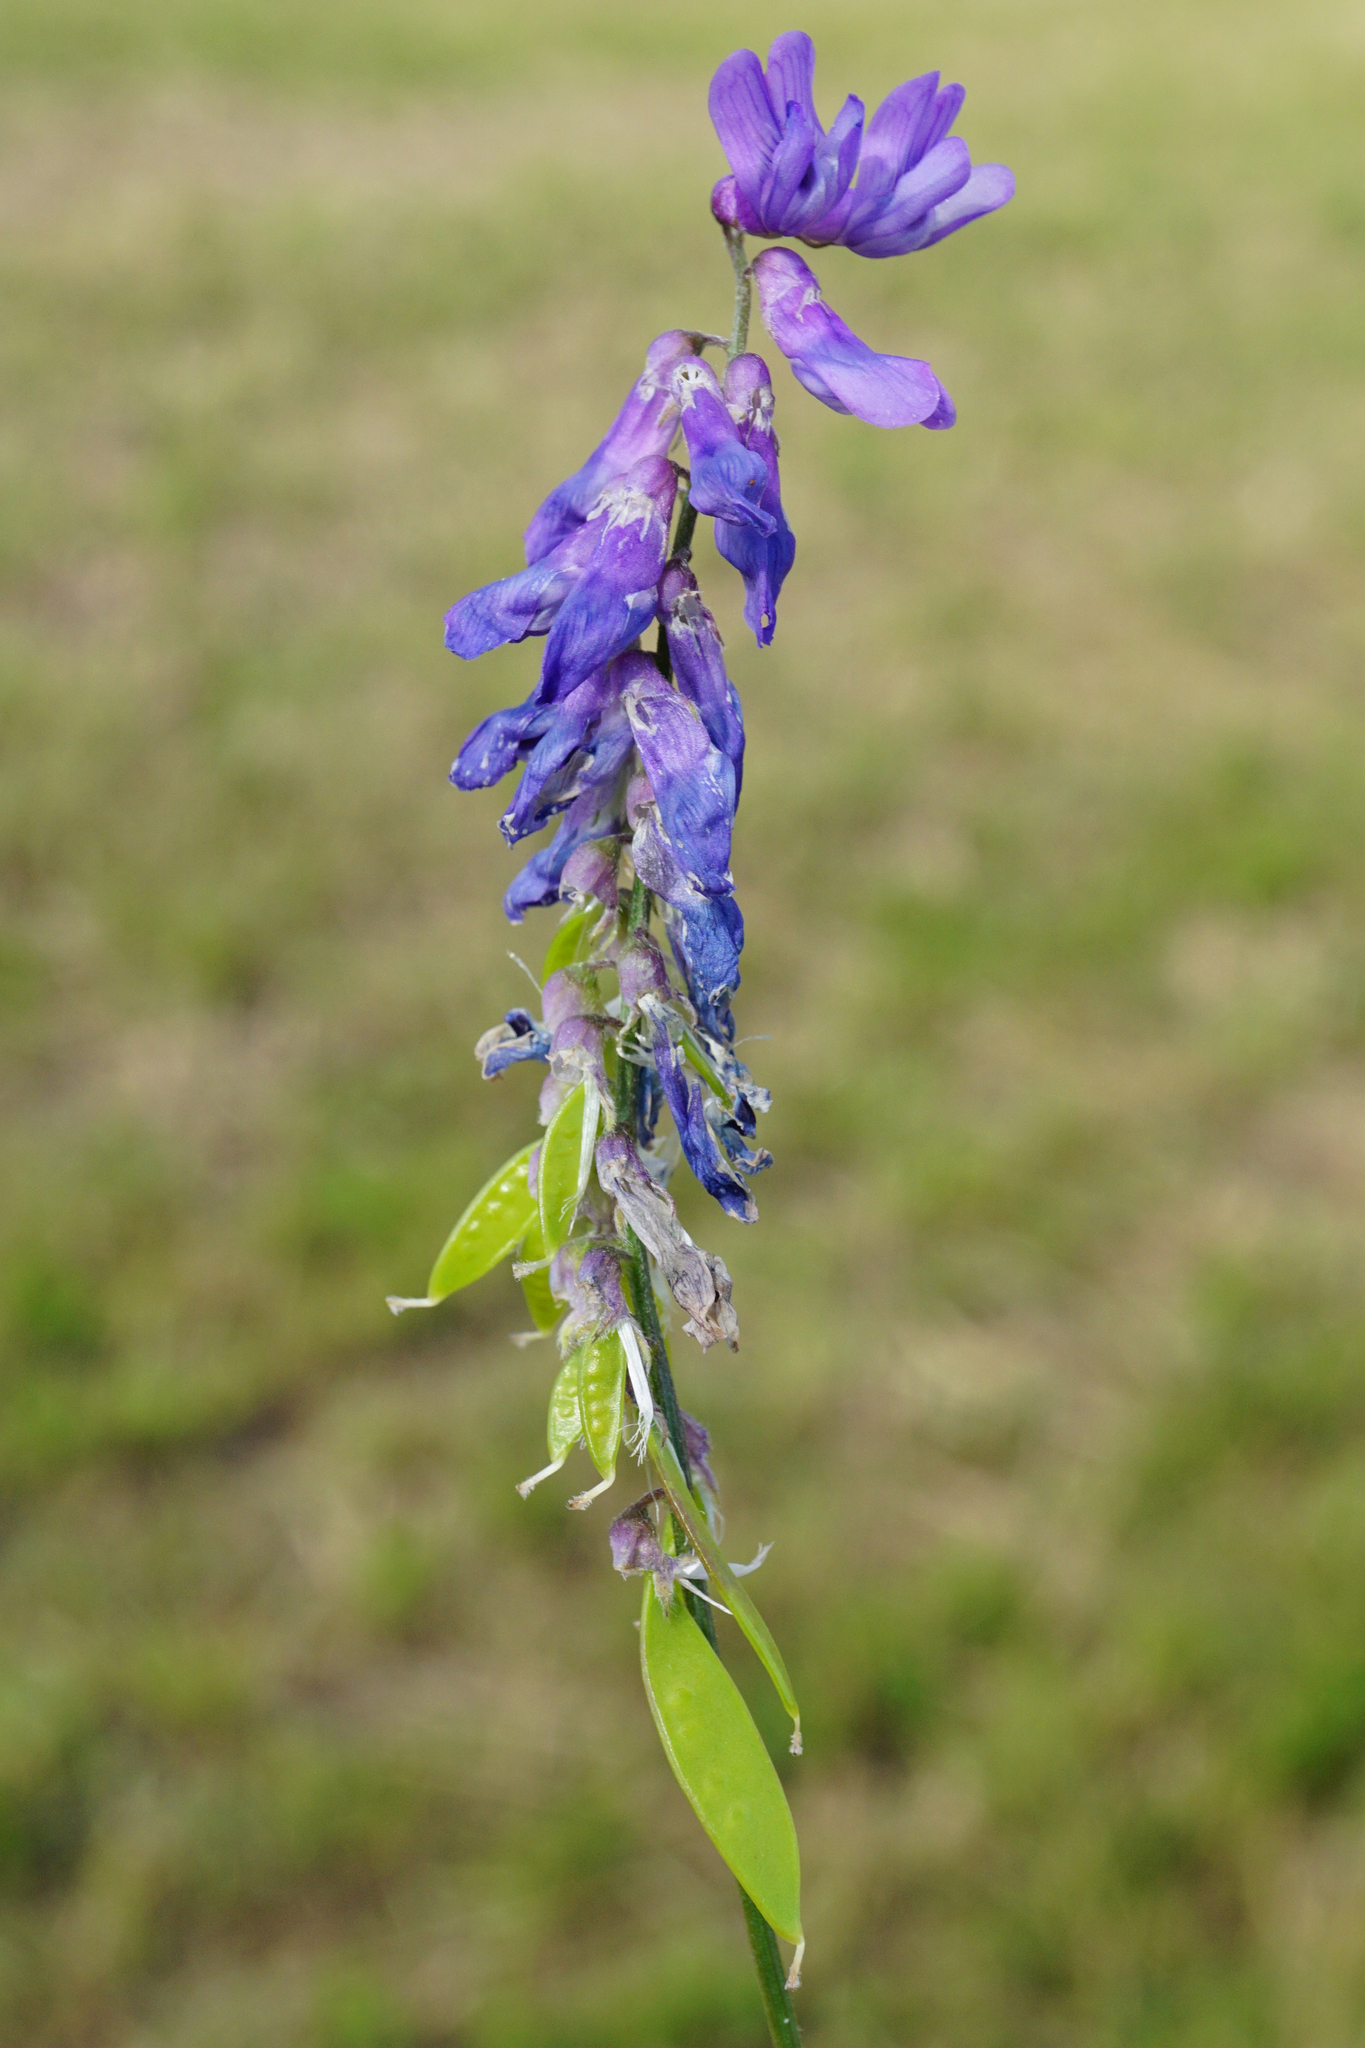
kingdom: Plantae
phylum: Tracheophyta
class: Magnoliopsida
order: Fabales
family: Fabaceae
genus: Vicia
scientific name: Vicia cracca
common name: Bird vetch
